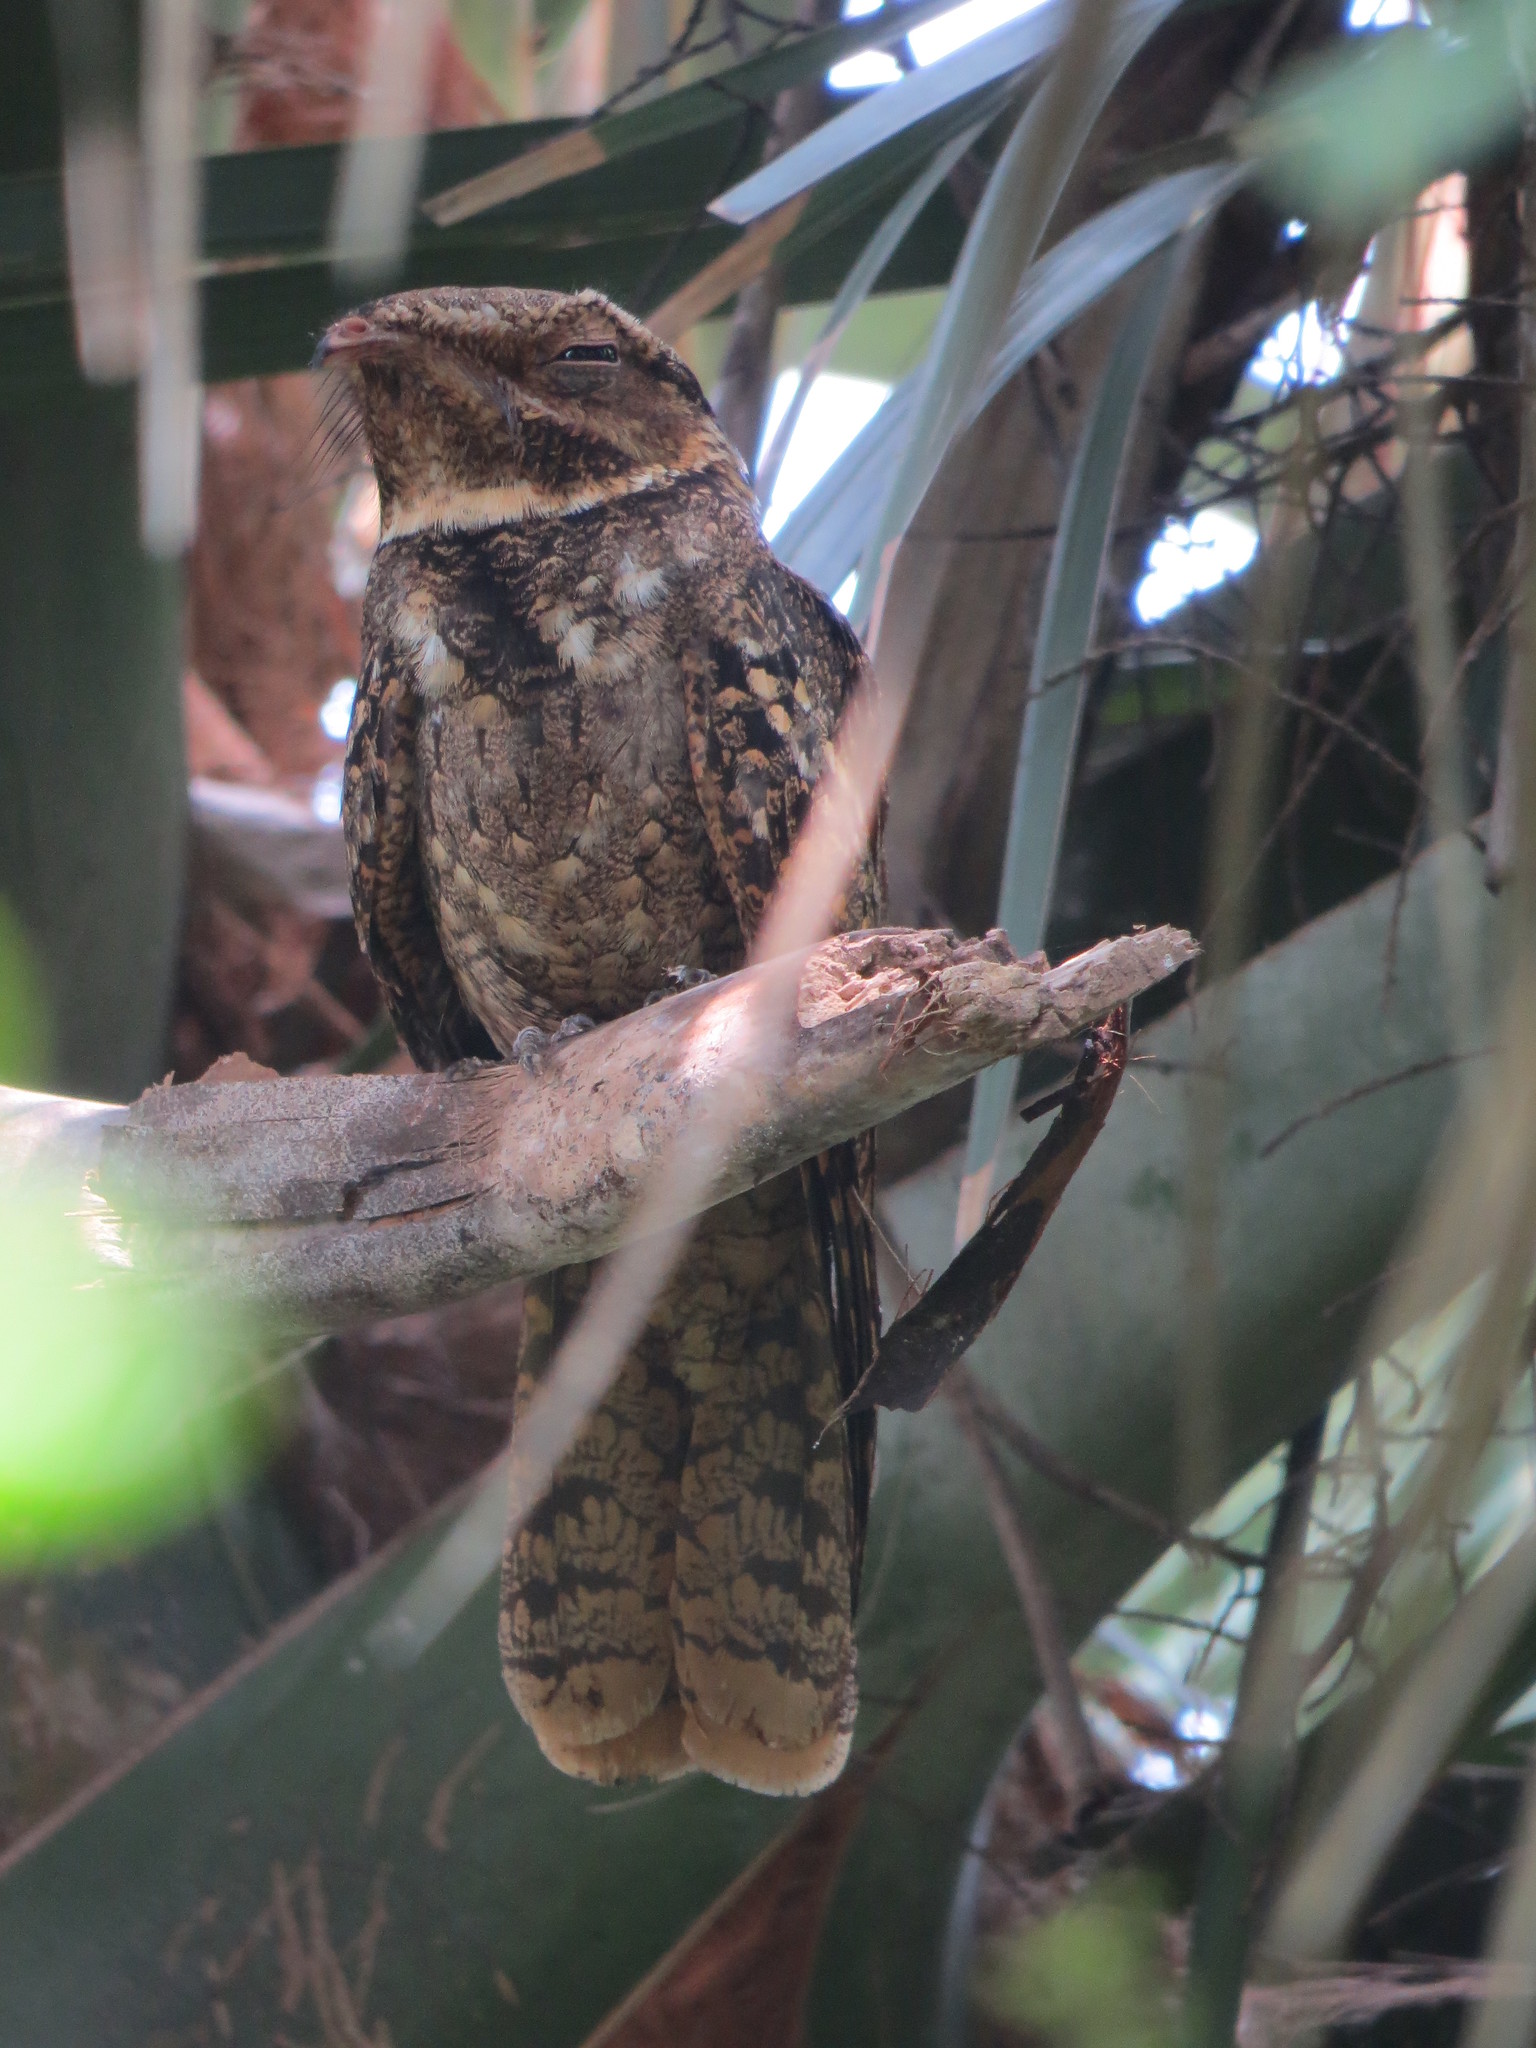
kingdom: Animalia
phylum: Chordata
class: Aves
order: Caprimulgiformes
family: Caprimulgidae
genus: Antrostomus
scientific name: Antrostomus carolinensis
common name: Chuck-will's-widow
